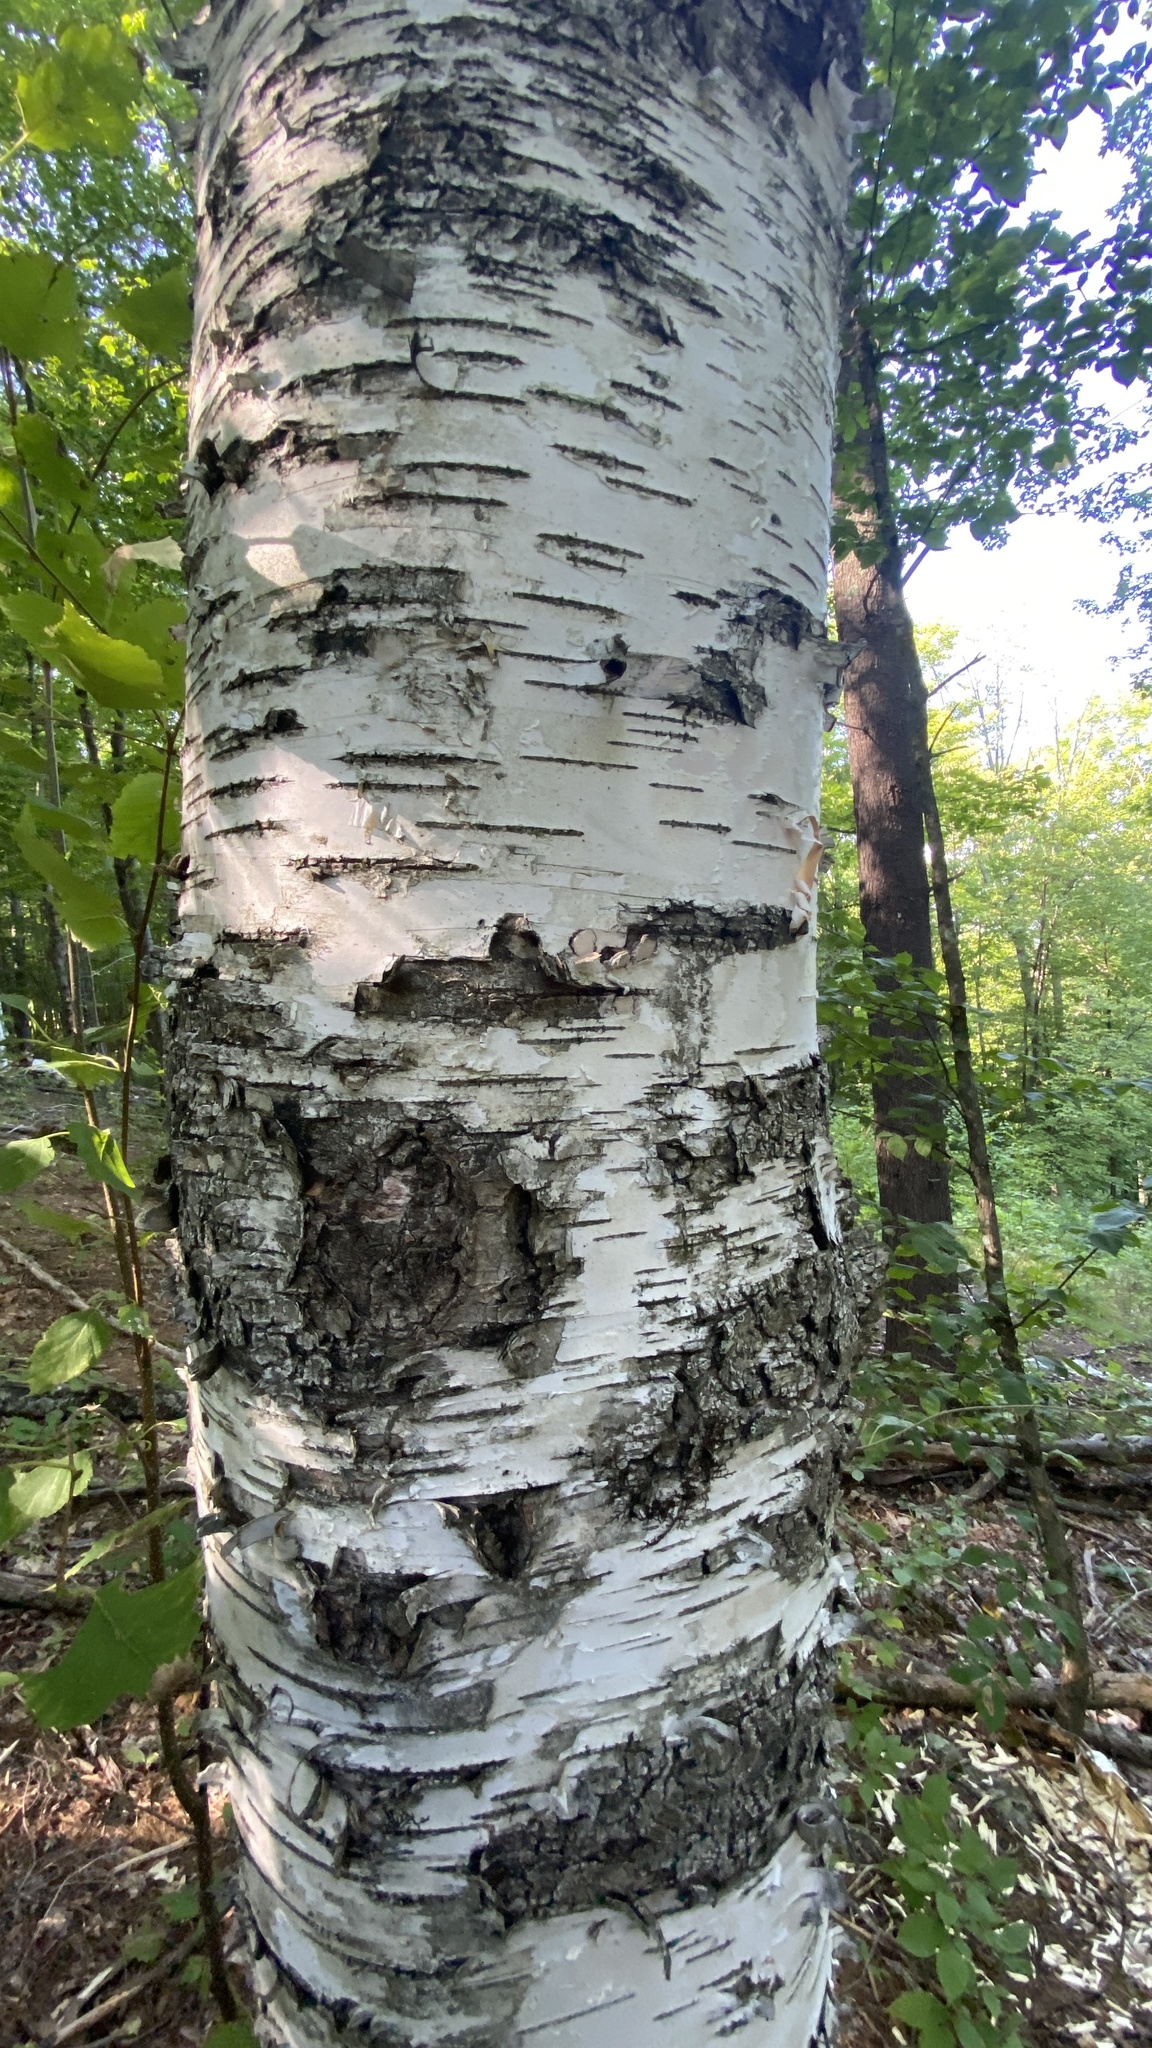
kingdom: Plantae
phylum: Tracheophyta
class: Magnoliopsida
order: Fagales
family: Betulaceae
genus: Betula
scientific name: Betula papyrifera
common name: Paper birch
